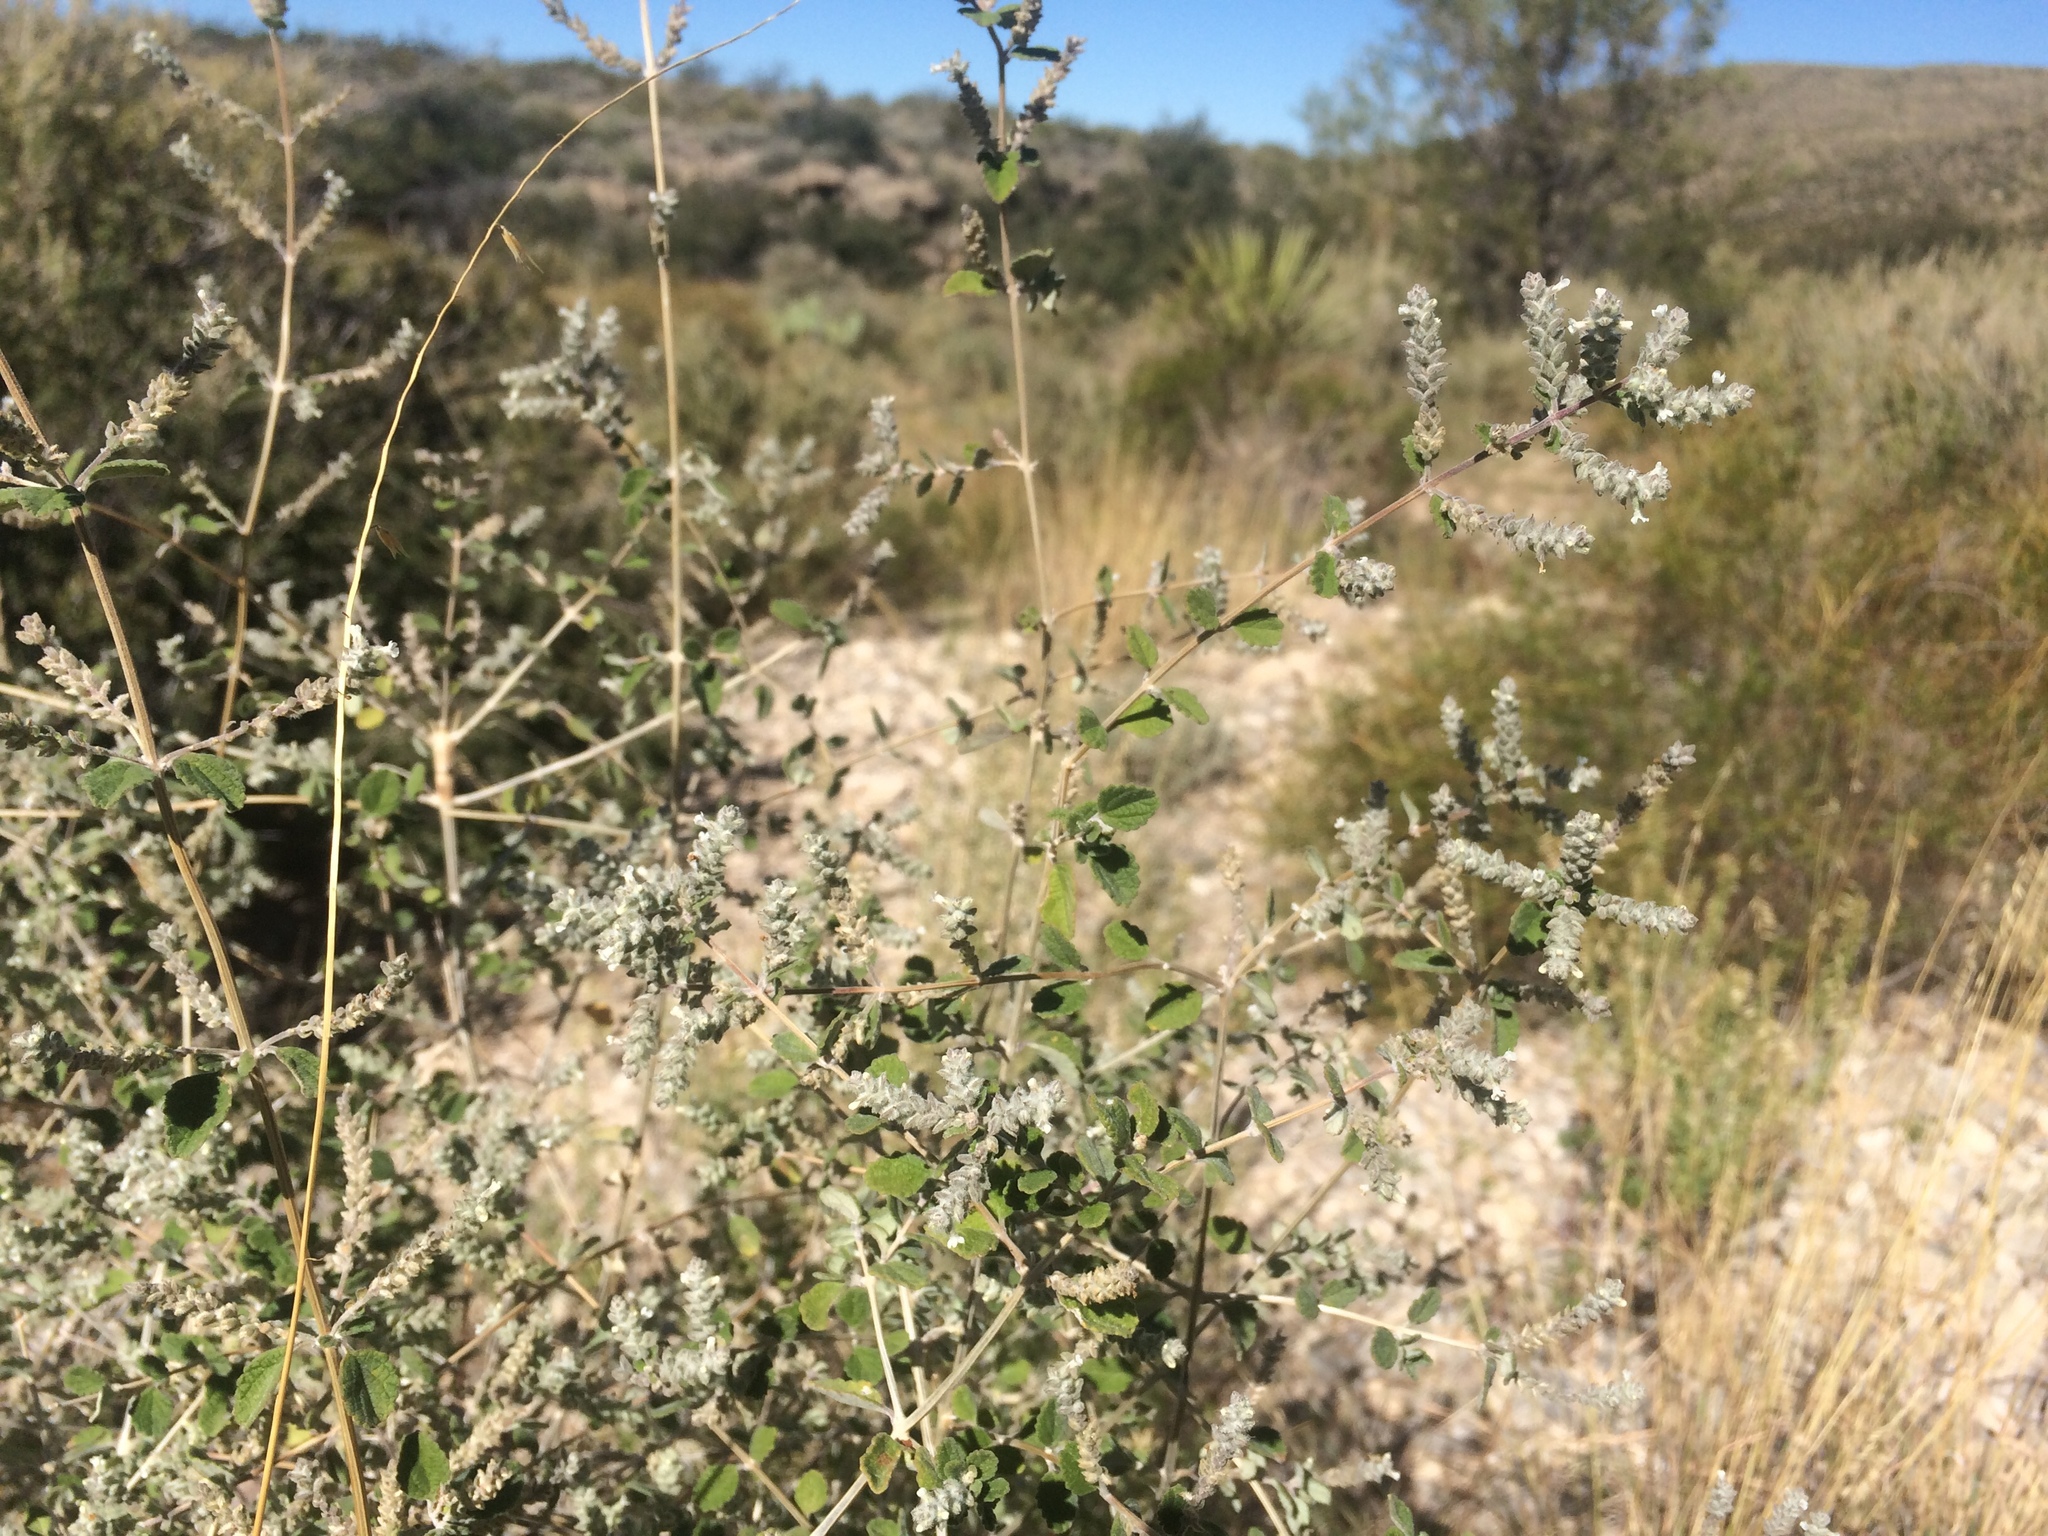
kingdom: Plantae
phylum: Tracheophyta
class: Magnoliopsida
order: Lamiales
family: Verbenaceae
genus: Aloysia
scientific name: Aloysia wrightii
